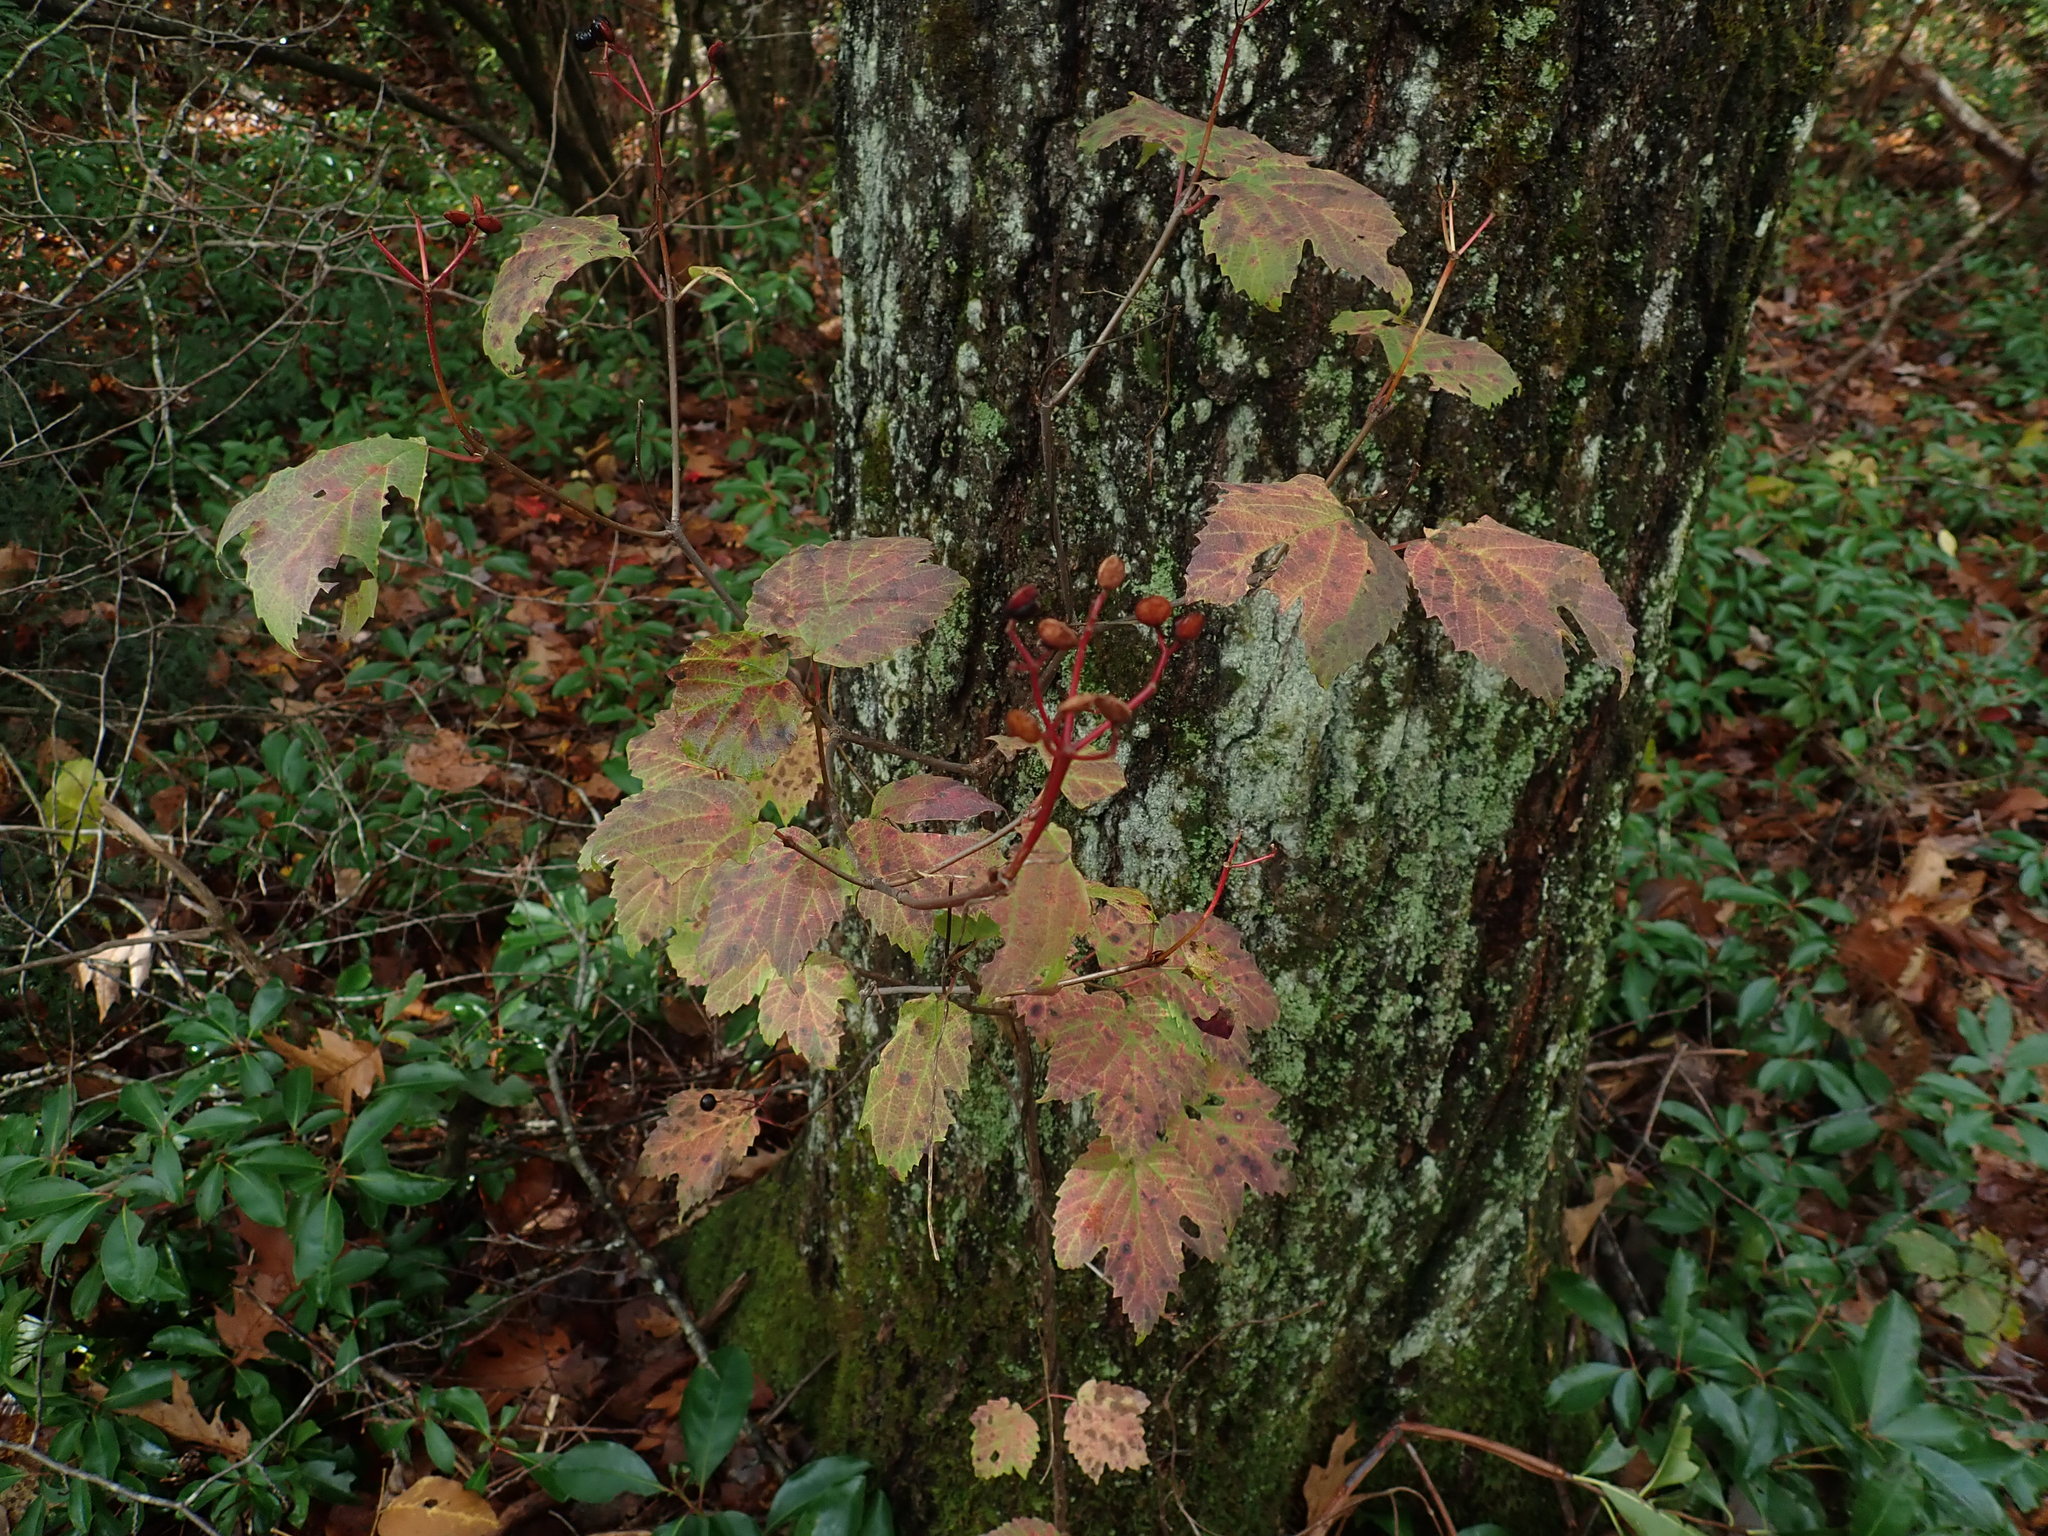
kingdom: Plantae
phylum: Tracheophyta
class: Magnoliopsida
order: Dipsacales
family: Viburnaceae
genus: Viburnum
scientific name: Viburnum acerifolium
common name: Dockmackie
